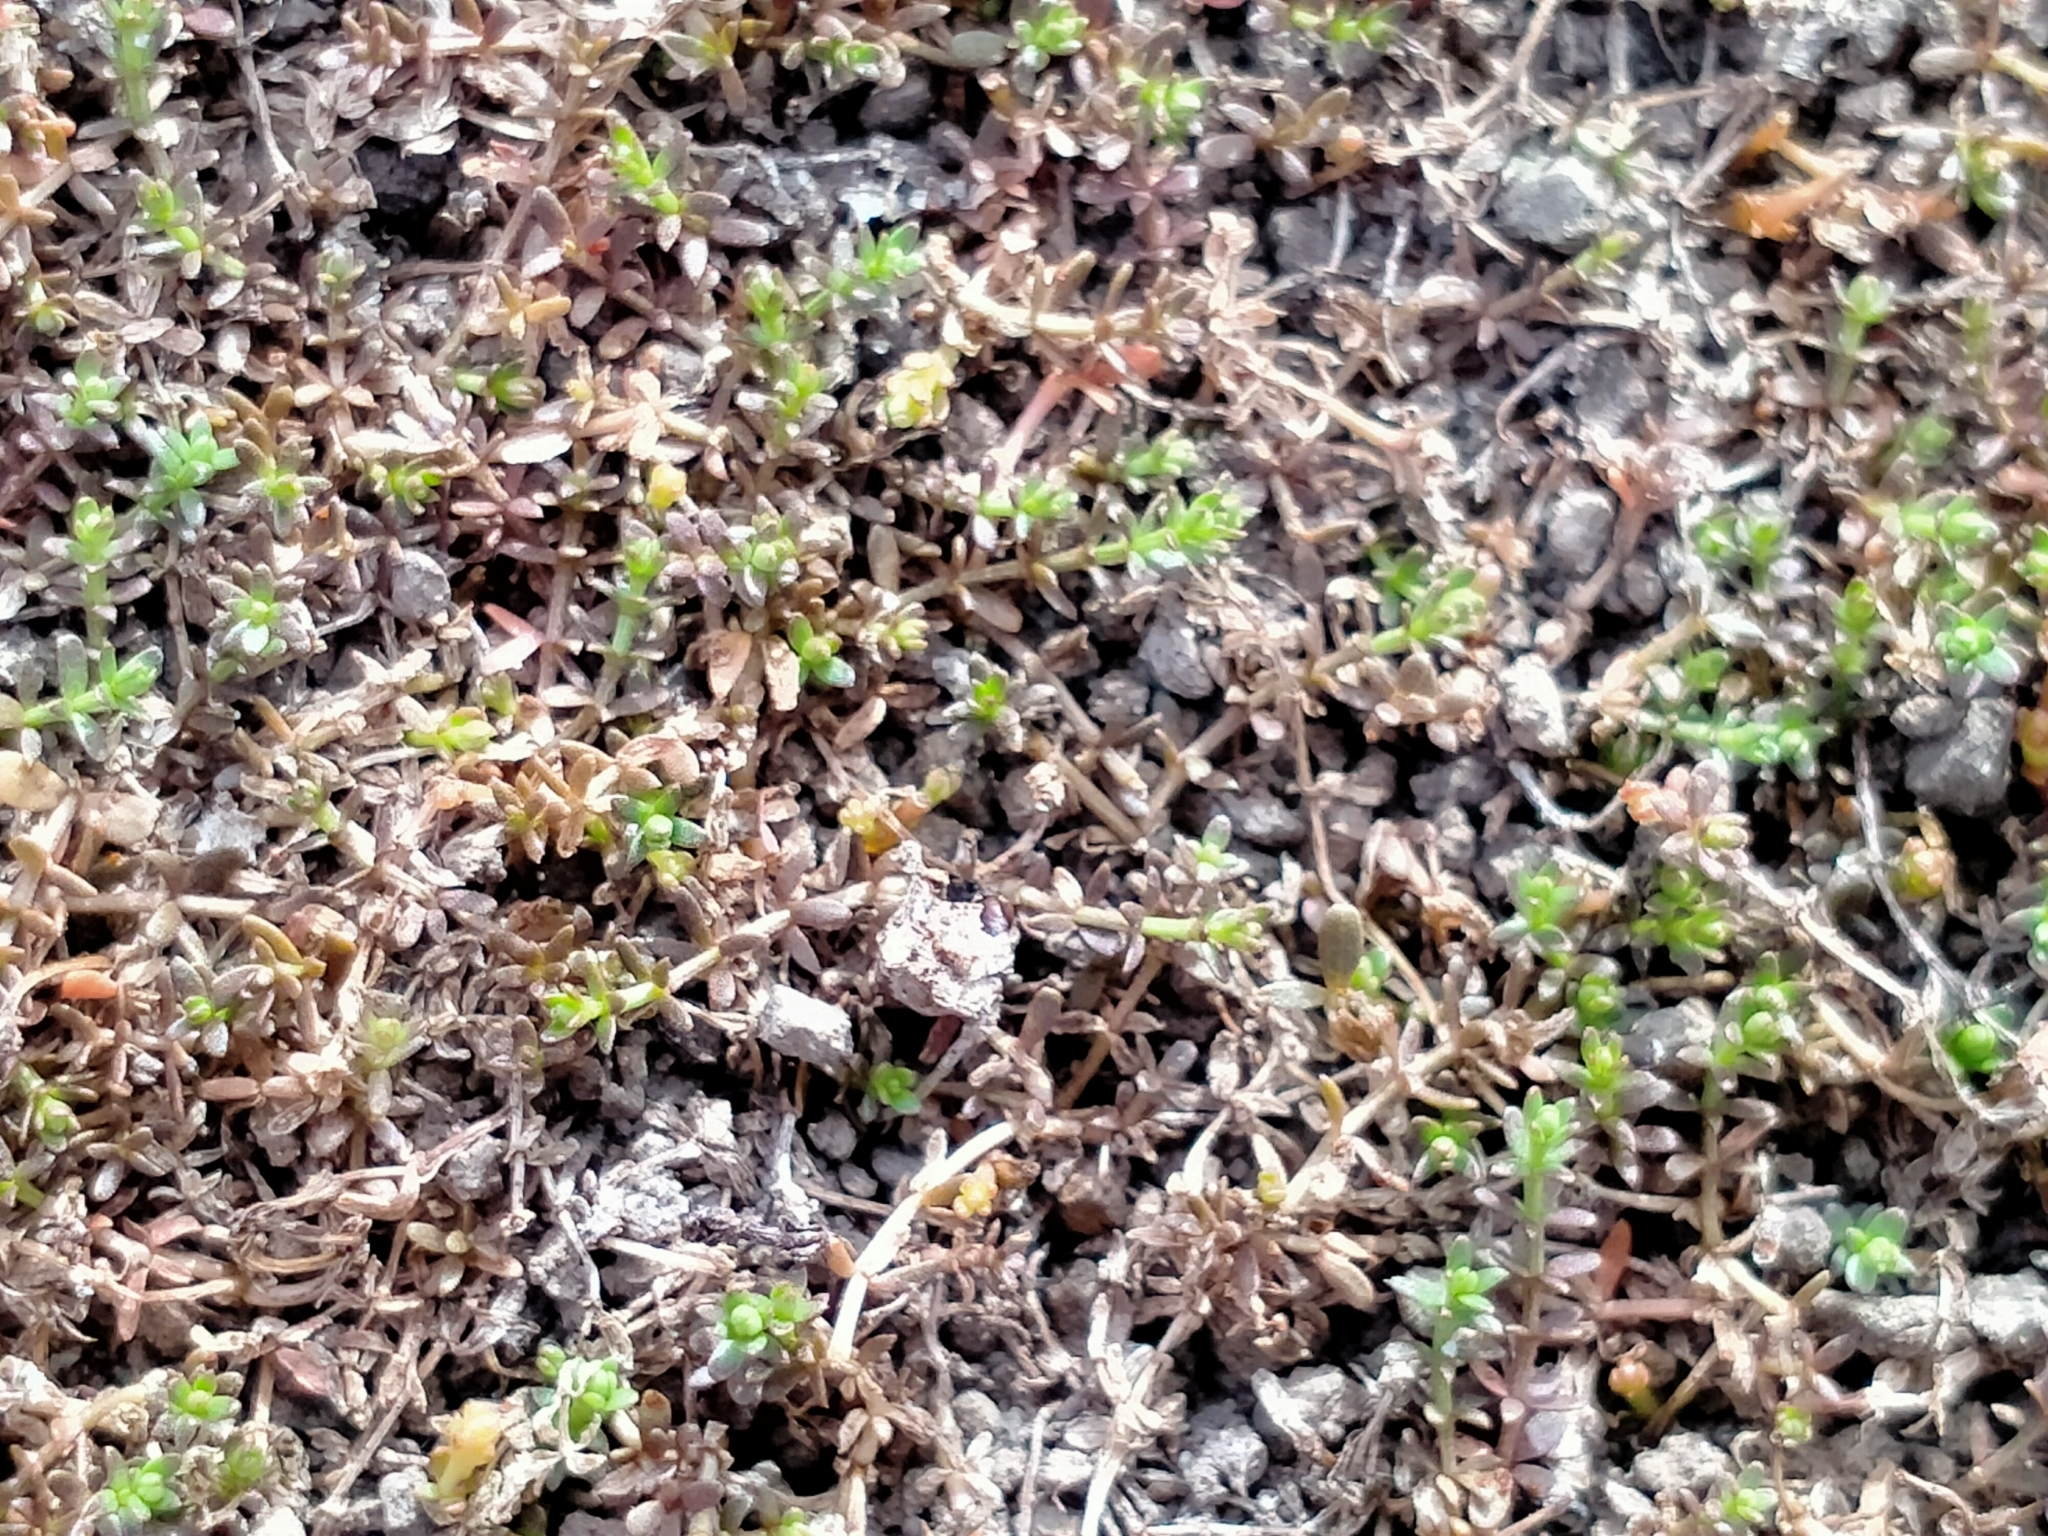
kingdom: Plantae
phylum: Tracheophyta
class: Magnoliopsida
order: Gentianales
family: Rubiaceae
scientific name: Rubiaceae
